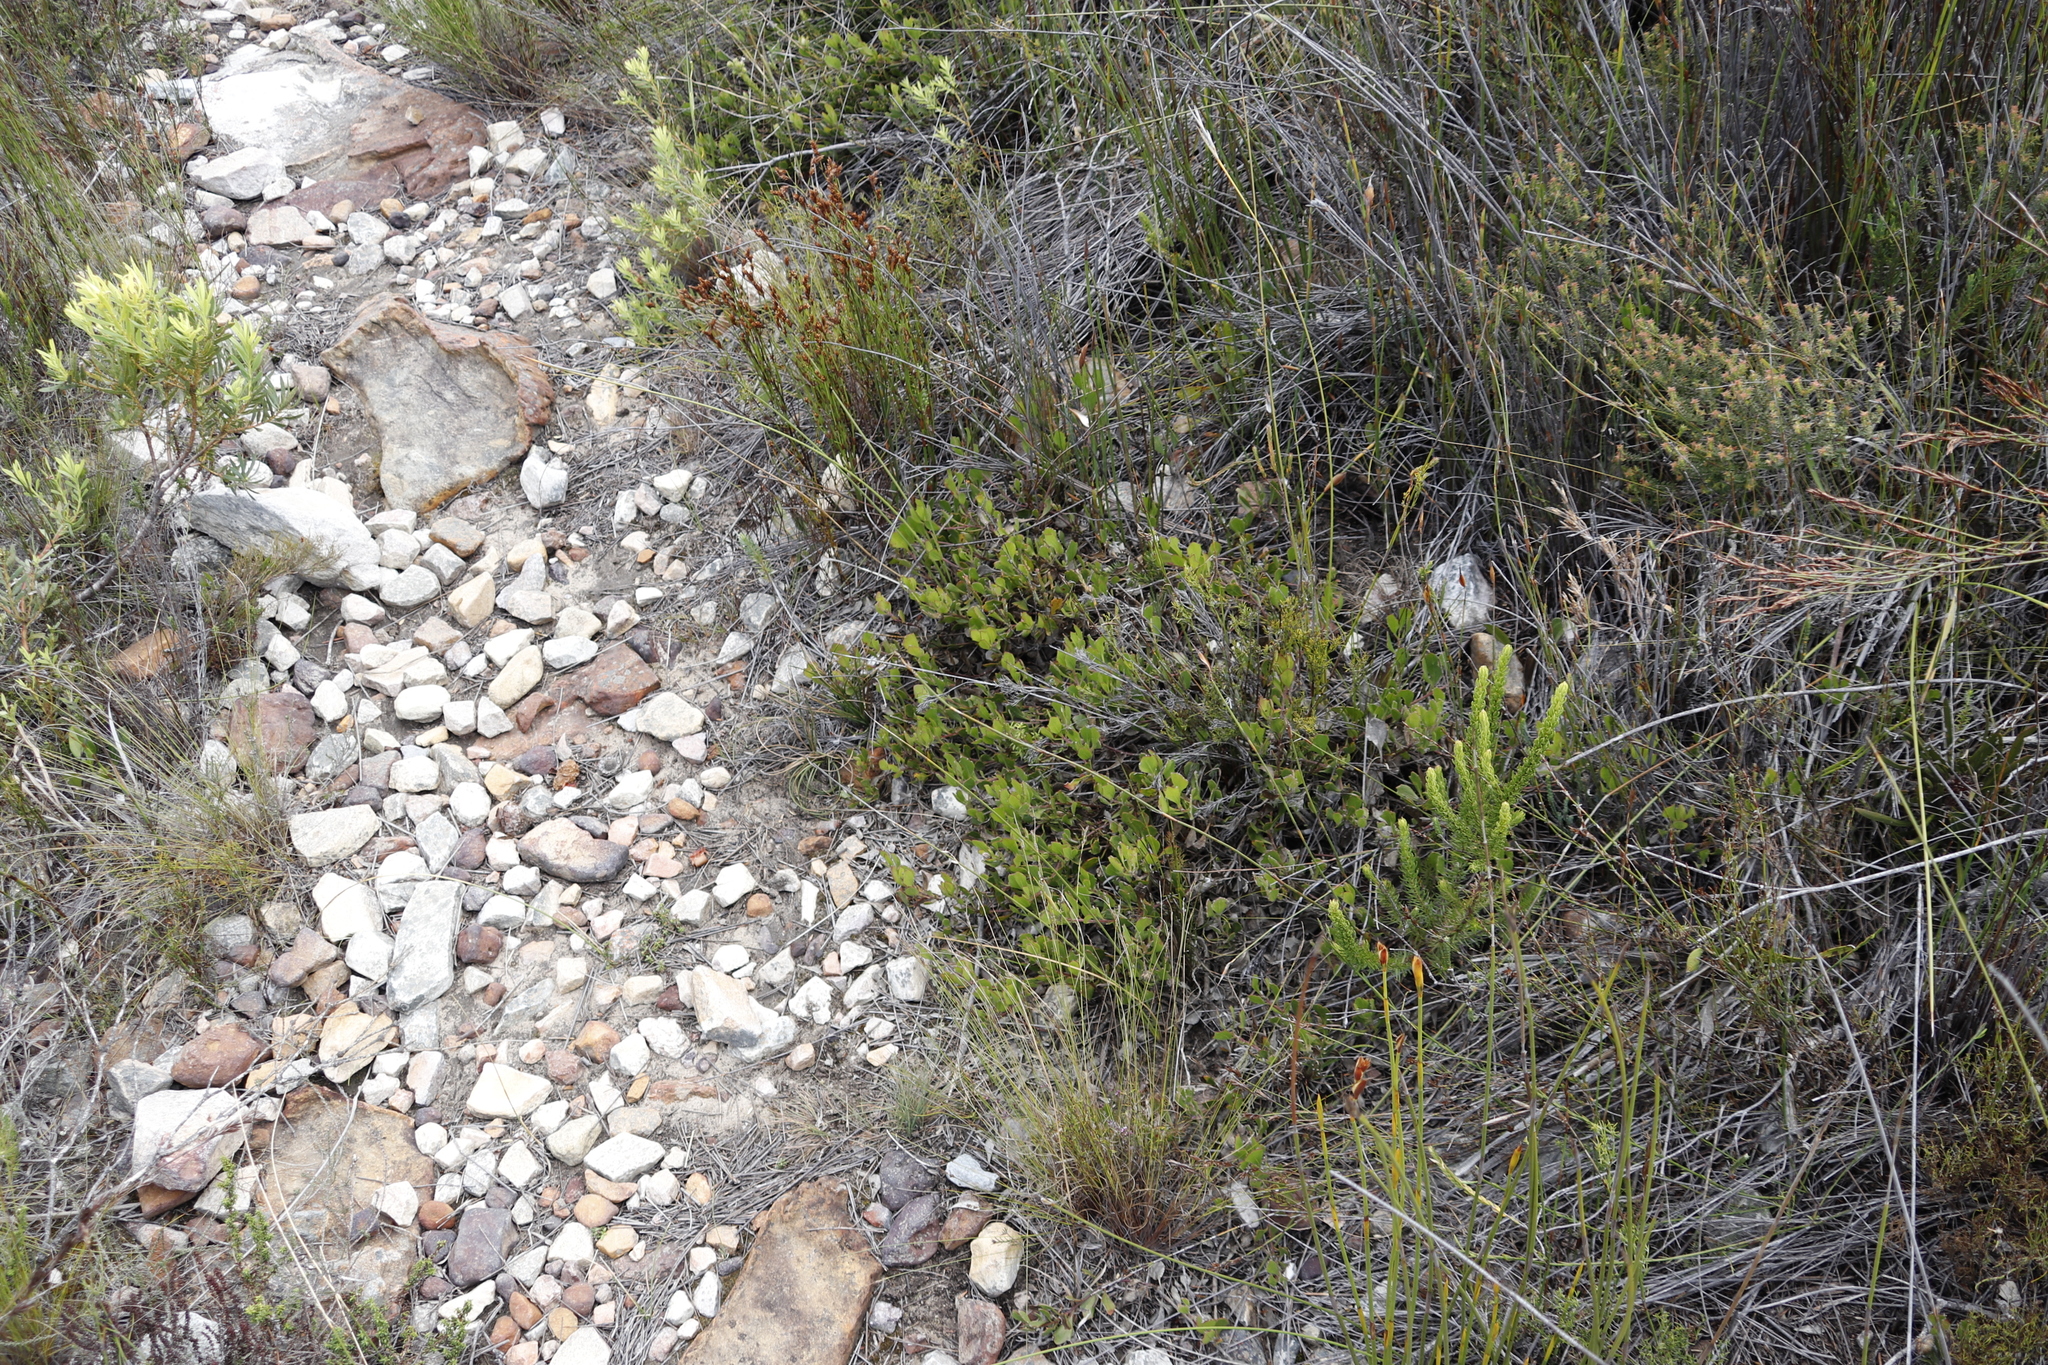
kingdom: Plantae
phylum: Tracheophyta
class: Magnoliopsida
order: Proteales
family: Proteaceae
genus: Serruria
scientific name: Serruria
